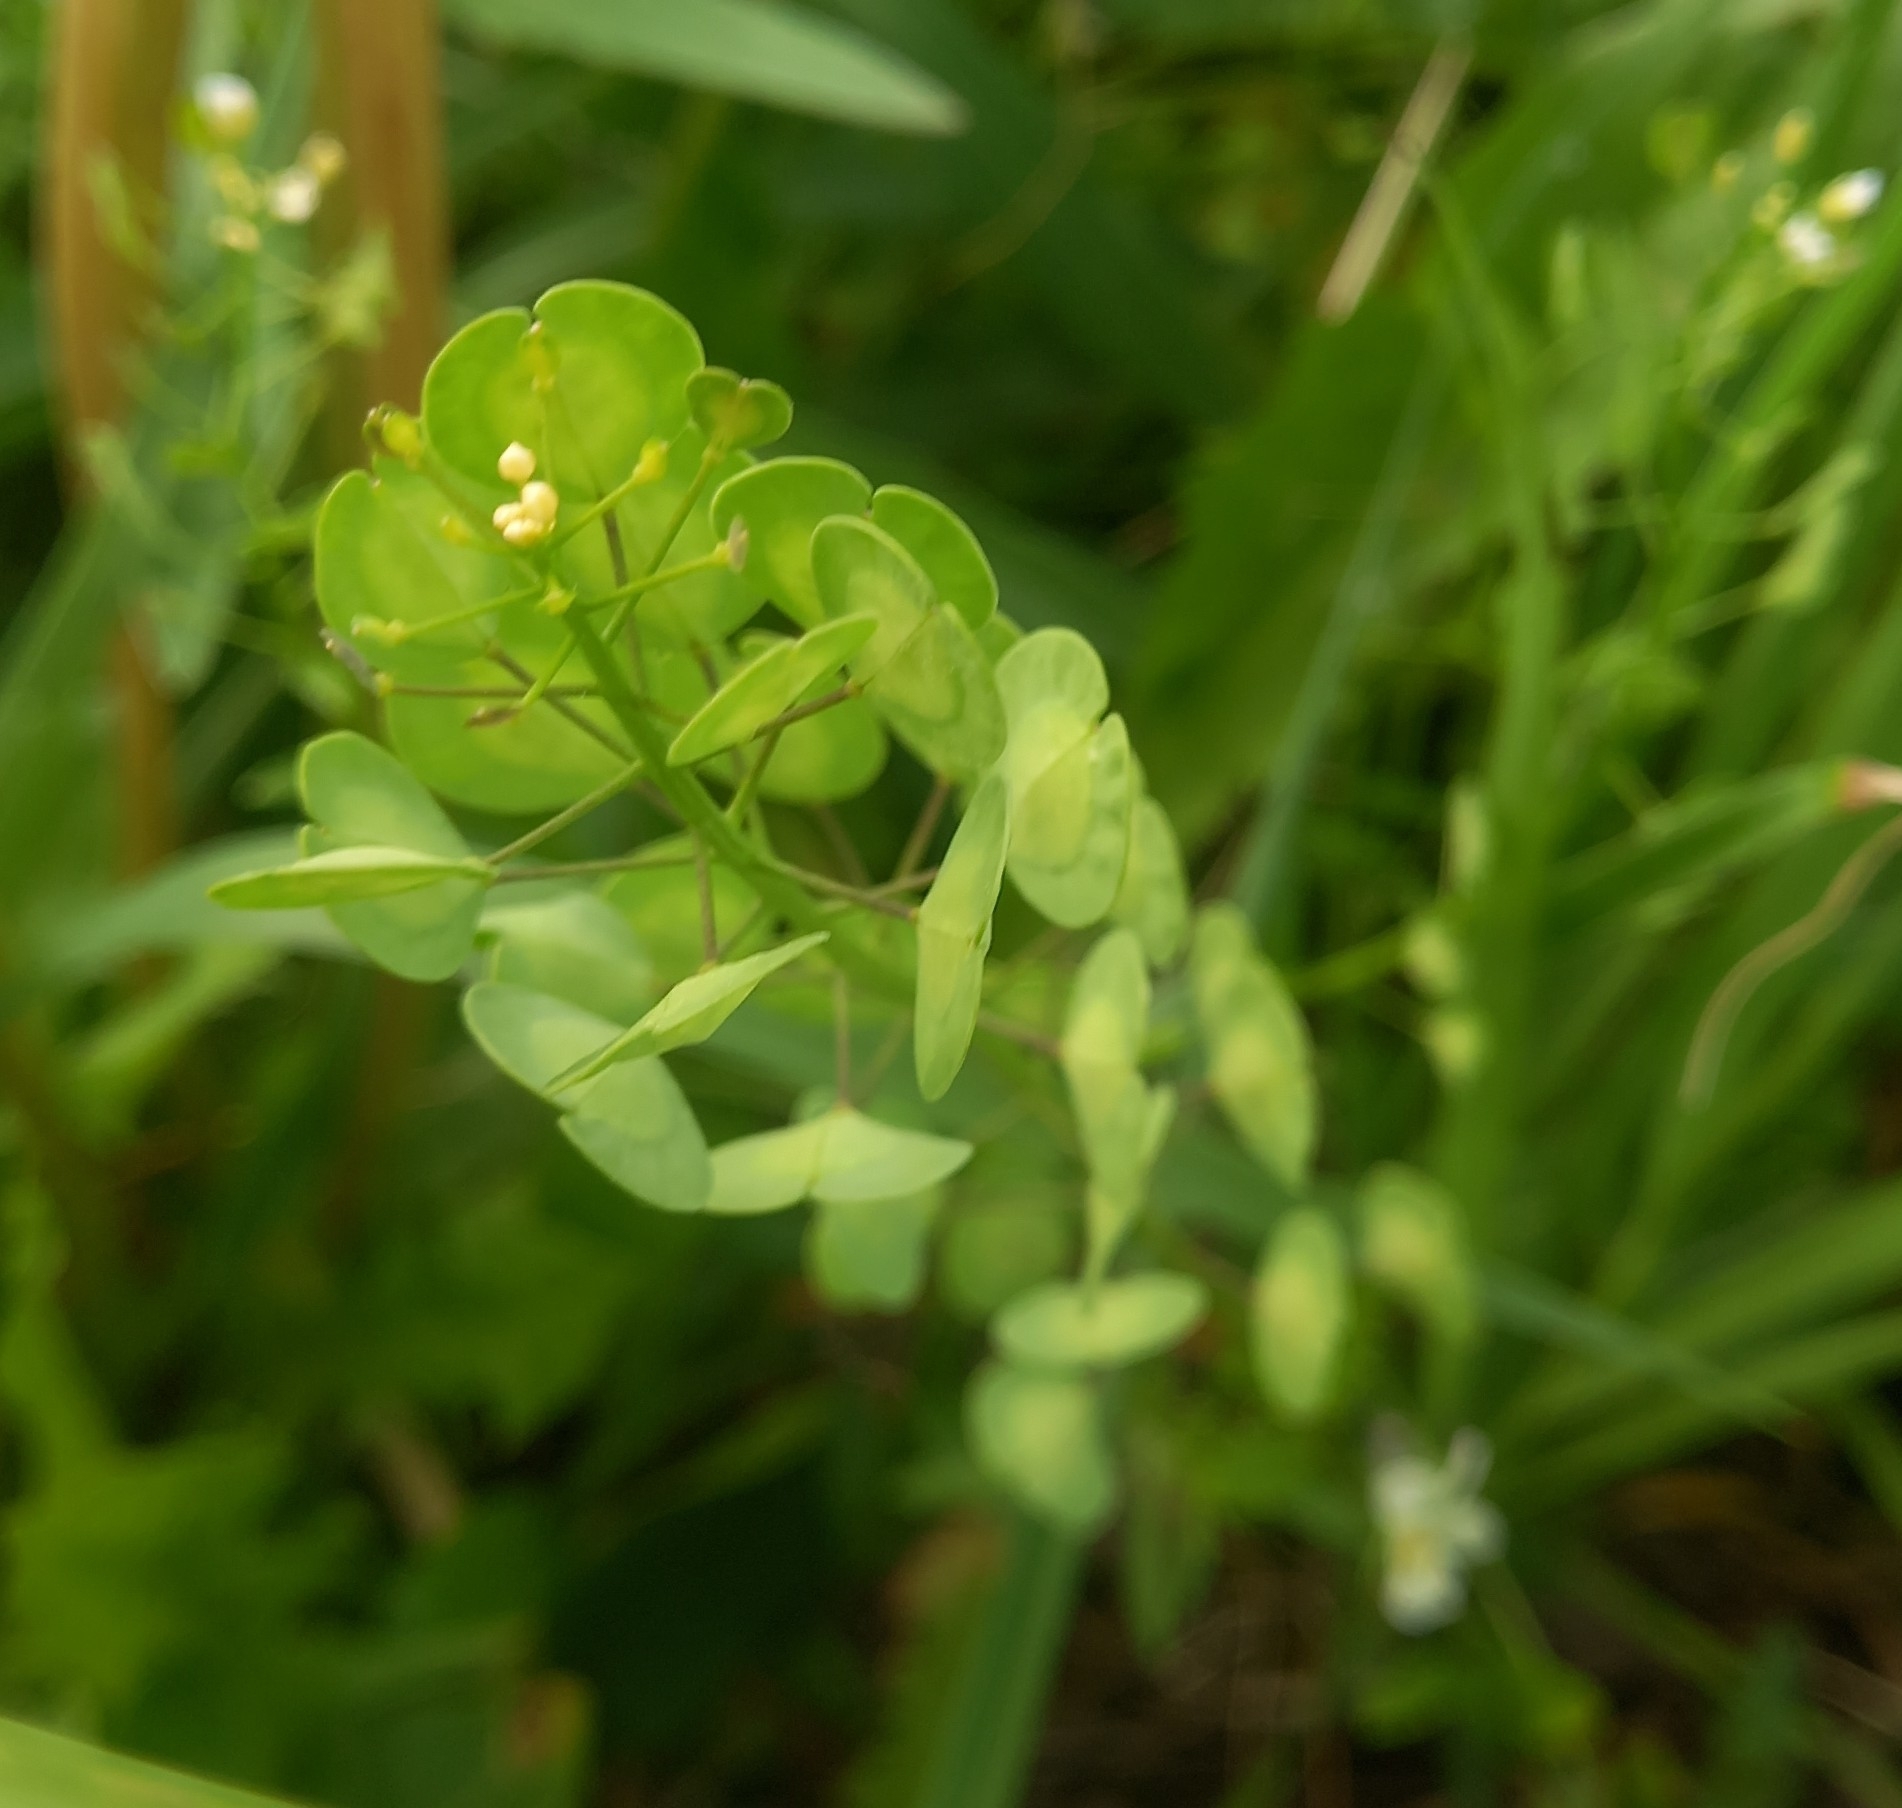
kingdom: Plantae
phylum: Tracheophyta
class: Magnoliopsida
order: Brassicales
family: Brassicaceae
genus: Thlaspi
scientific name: Thlaspi arvense
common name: Field pennycress
